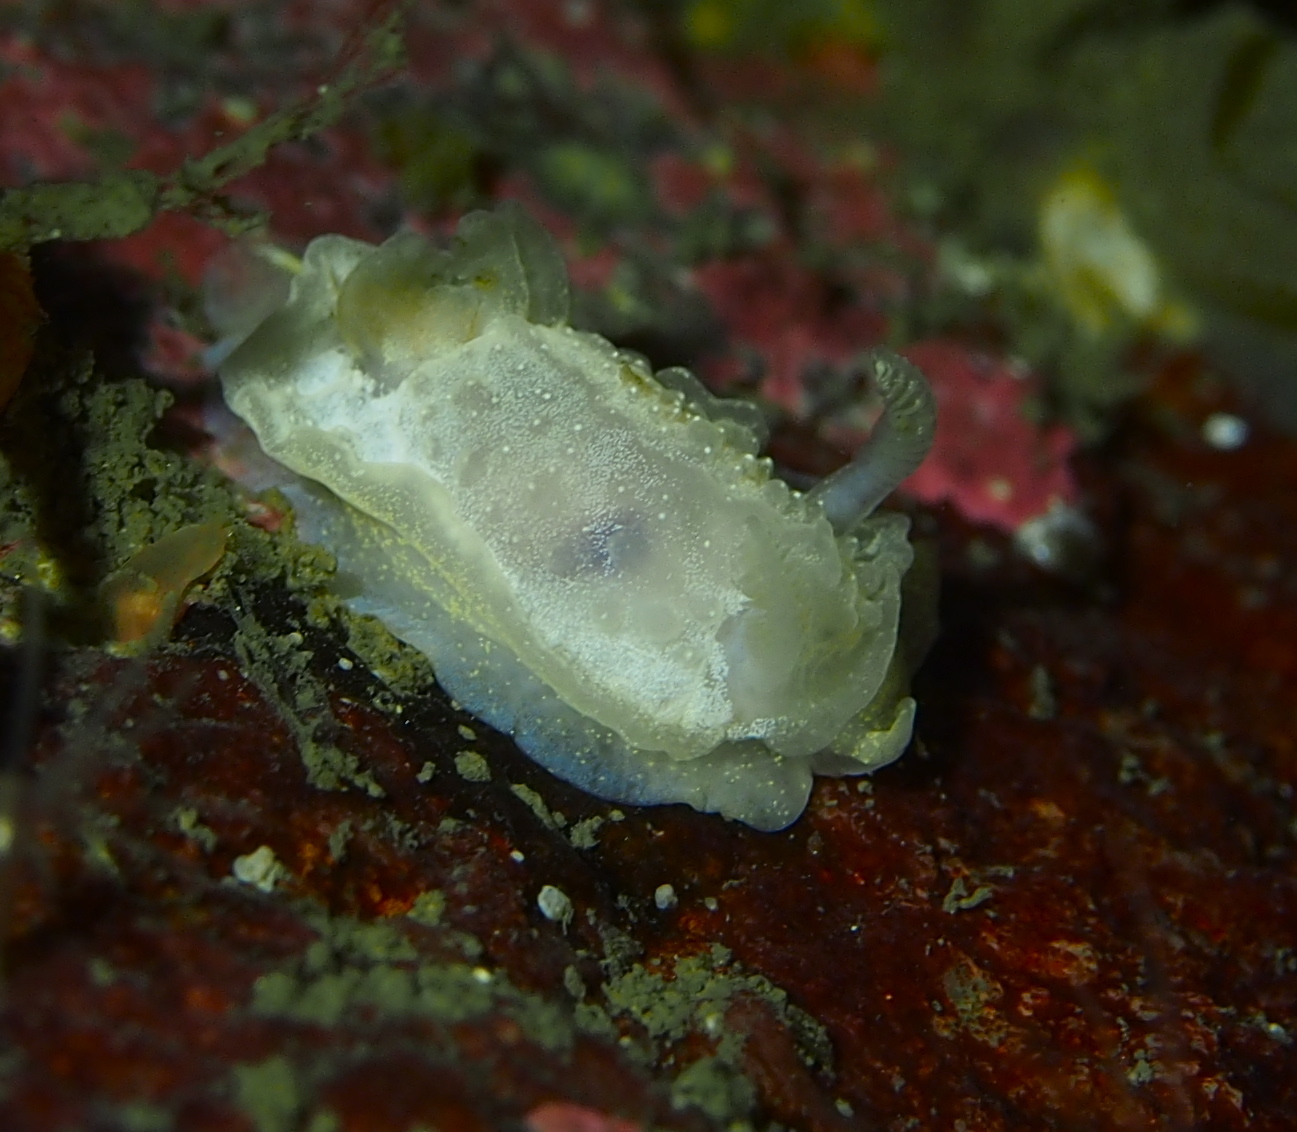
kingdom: Animalia
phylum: Mollusca
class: Gastropoda
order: Nudibranchia
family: Goniodorididae
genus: Okenia
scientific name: Okenia
